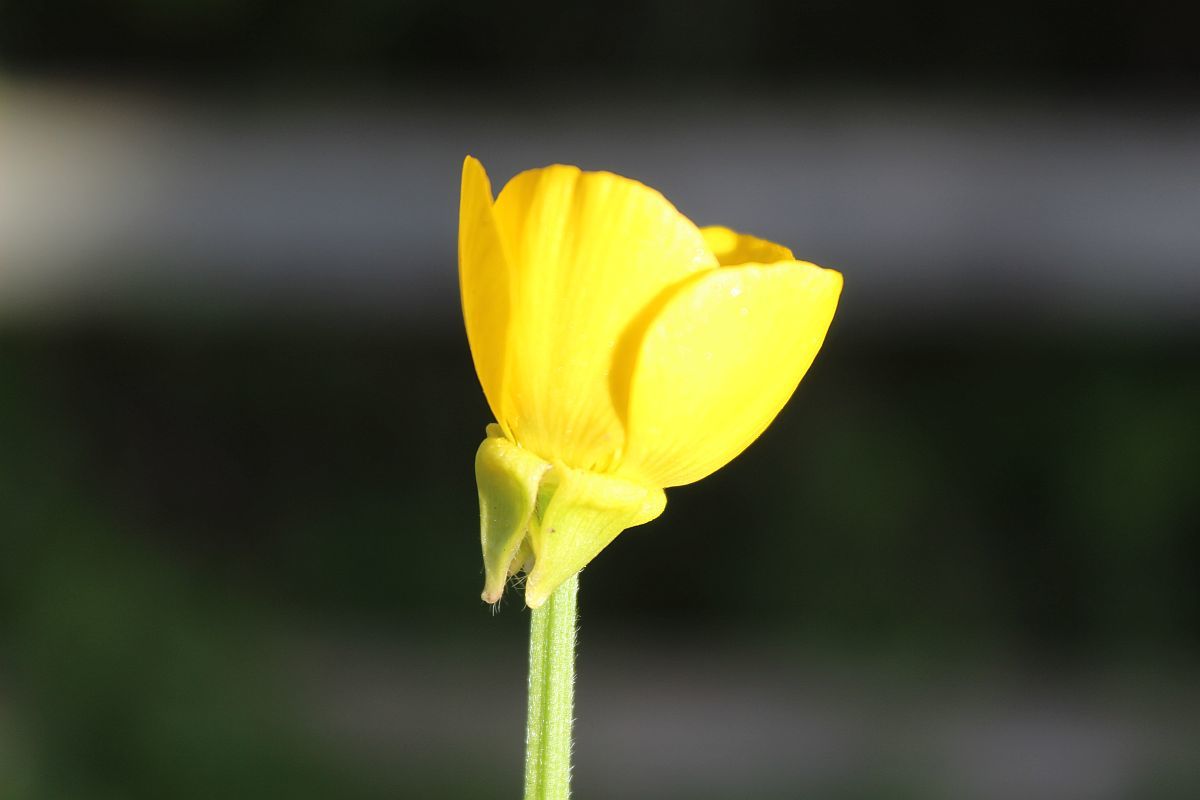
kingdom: Plantae
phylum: Tracheophyta
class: Magnoliopsida
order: Ranunculales
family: Ranunculaceae
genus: Ranunculus
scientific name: Ranunculus bulbosus
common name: Bulbous buttercup
